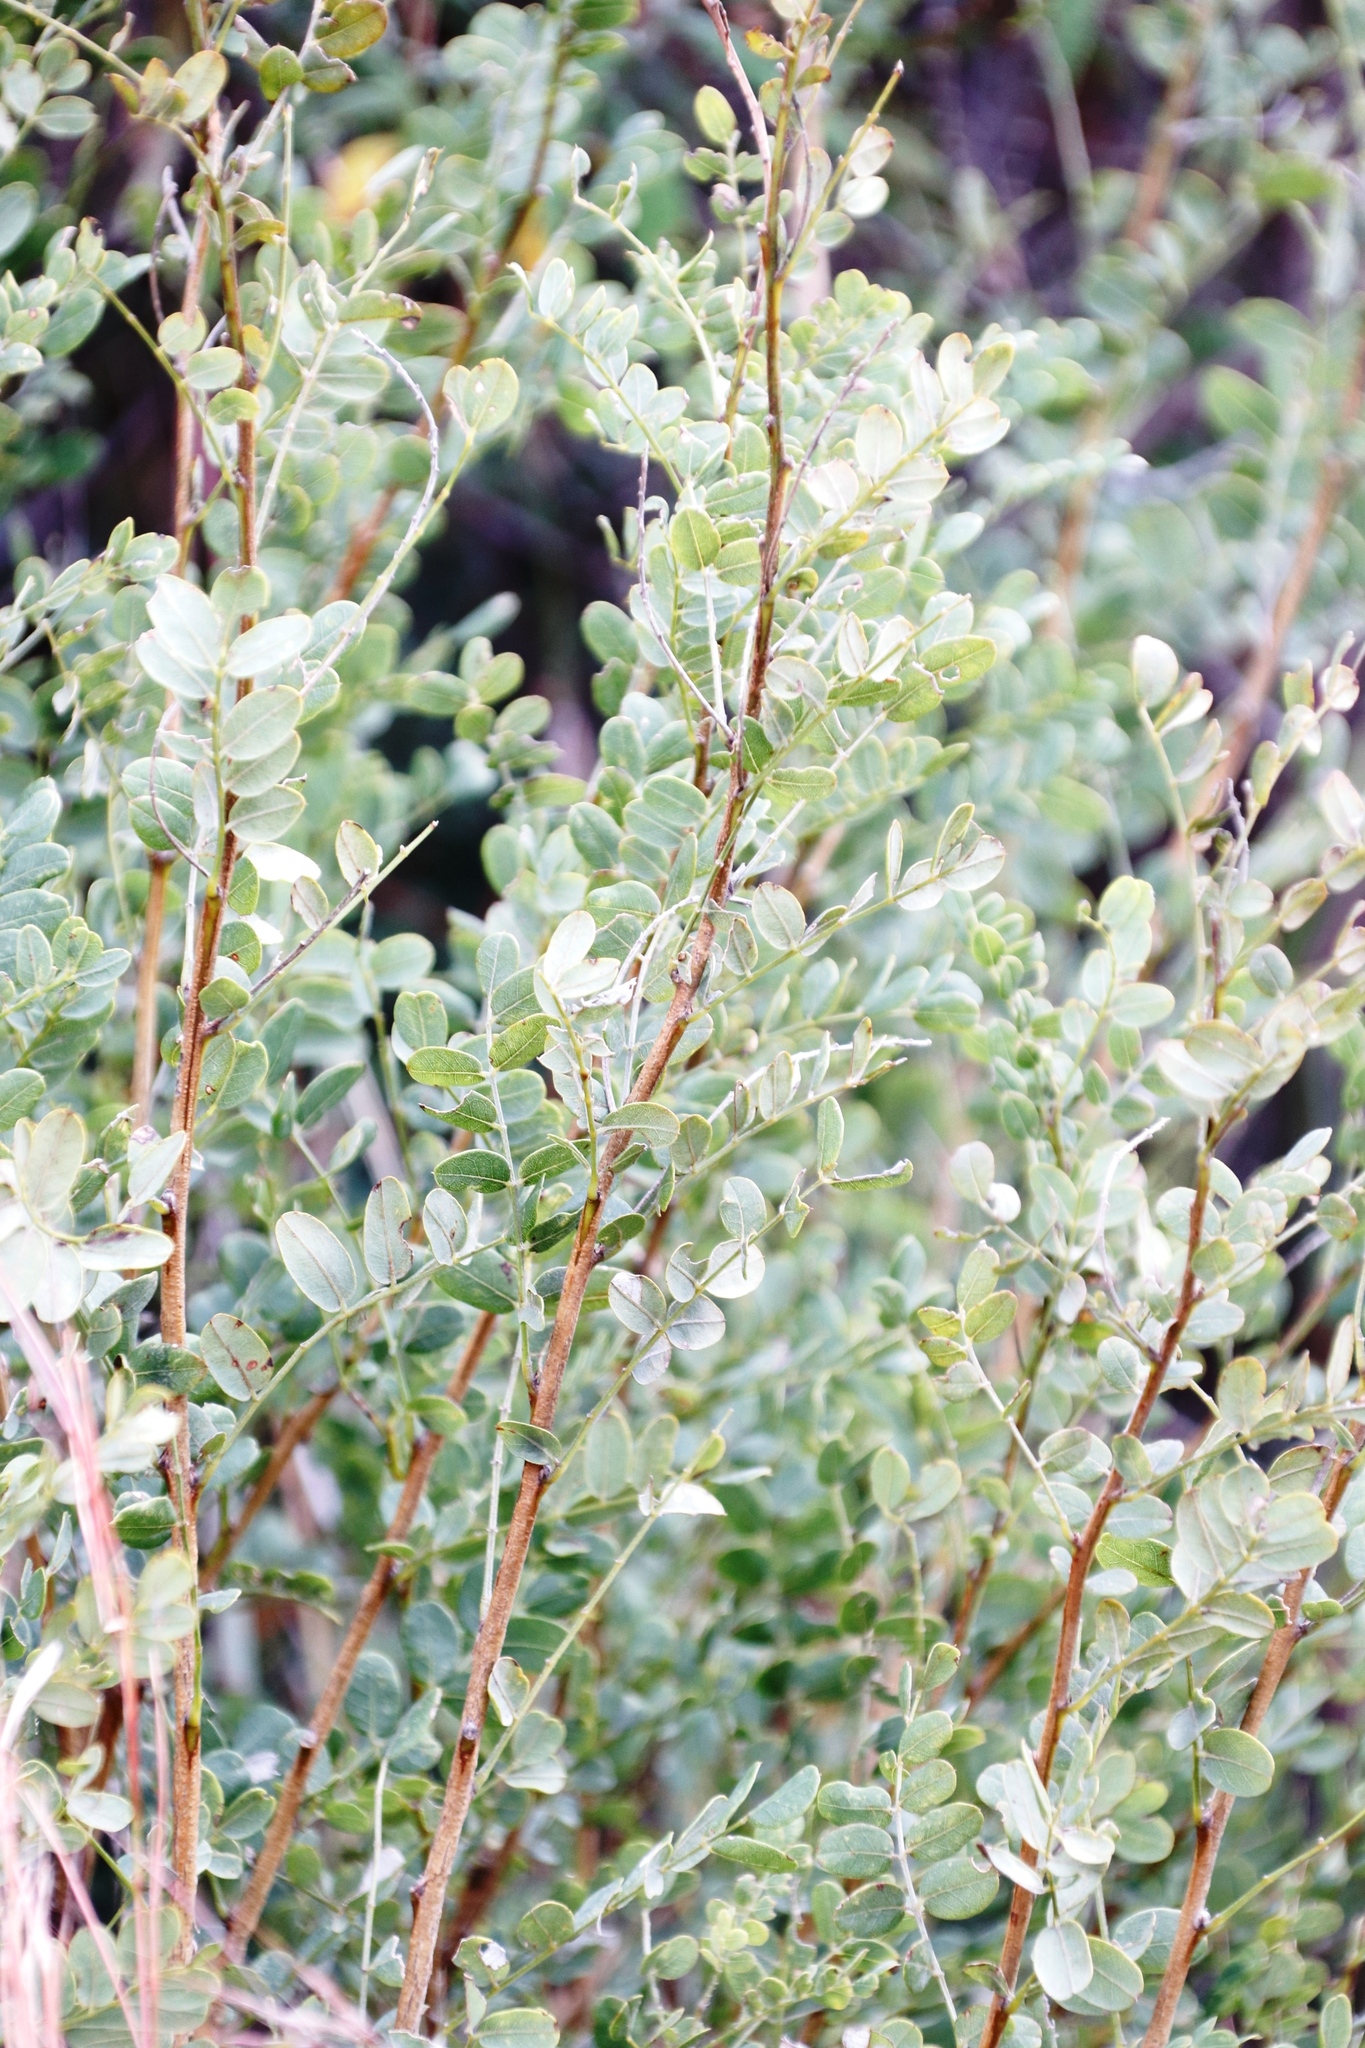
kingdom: Plantae
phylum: Tracheophyta
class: Magnoliopsida
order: Fabales
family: Fabaceae
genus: Calpurnia
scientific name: Calpurnia sericea
